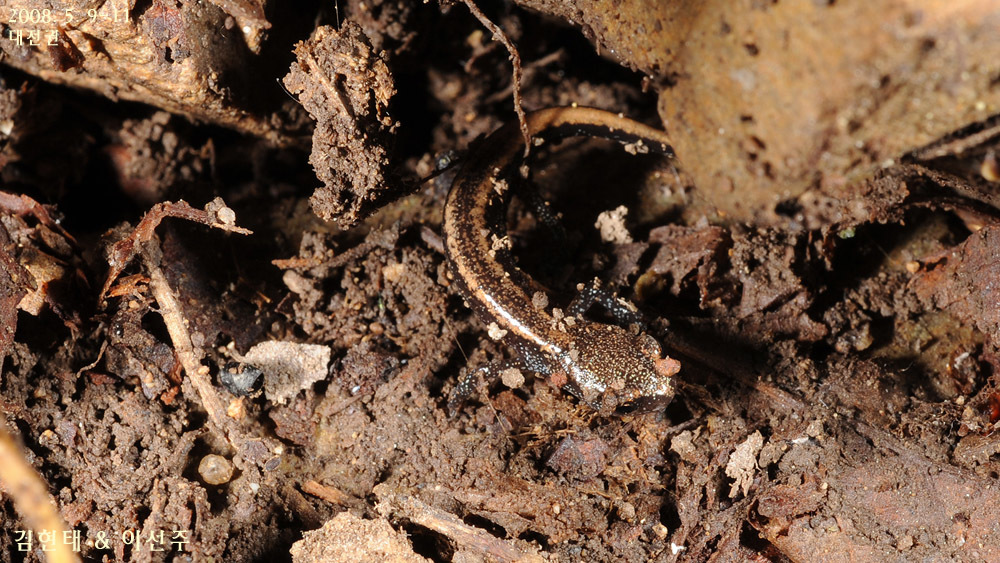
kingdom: Animalia
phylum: Chordata
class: Amphibia
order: Caudata
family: Plethodontidae
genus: Karsenia
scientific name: Karsenia koreana
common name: Korean crevice salamander
